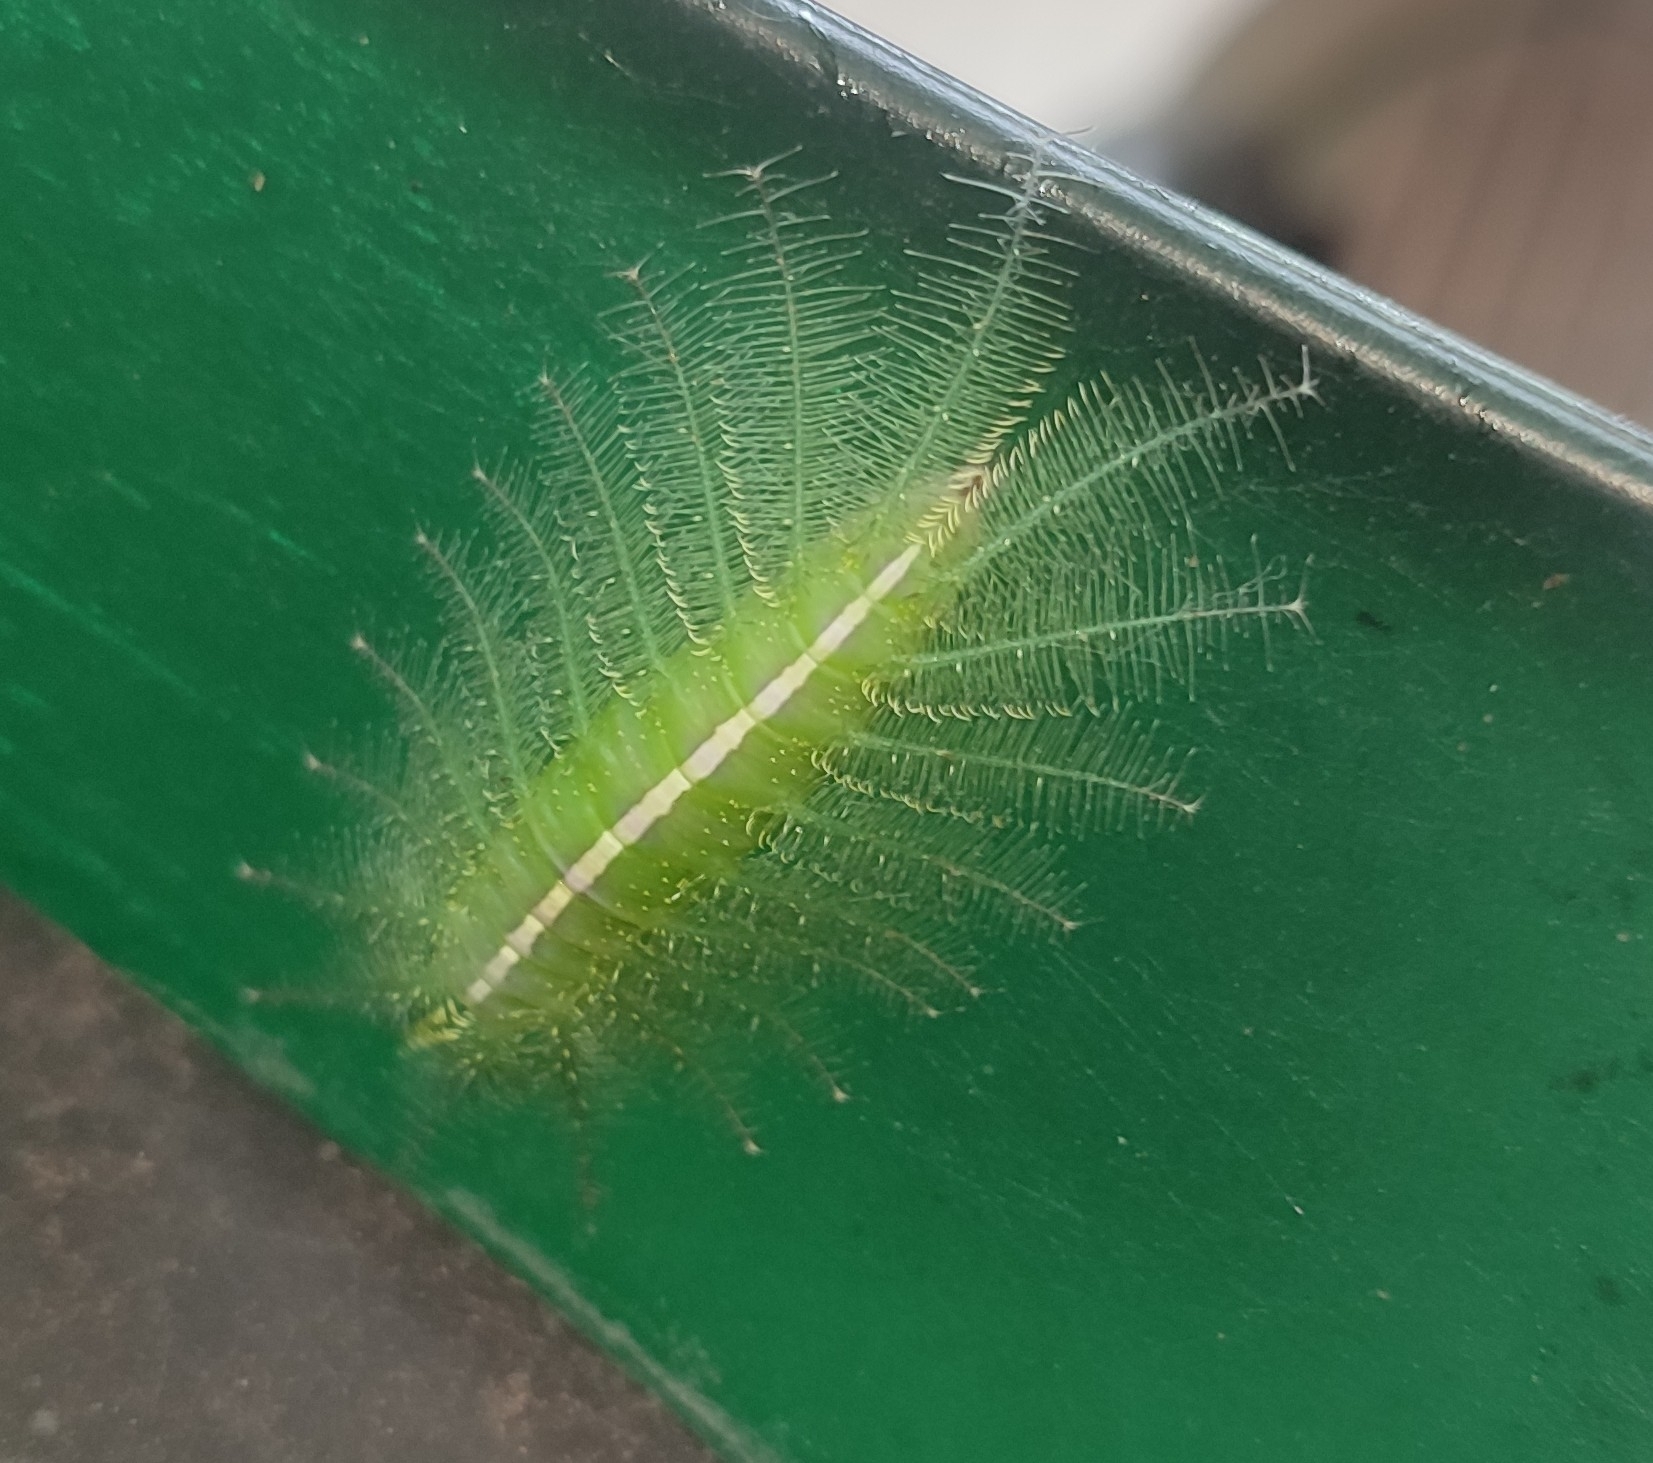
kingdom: Animalia
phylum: Arthropoda
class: Insecta
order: Lepidoptera
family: Nymphalidae
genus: Euthalia
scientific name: Euthalia aconthea
